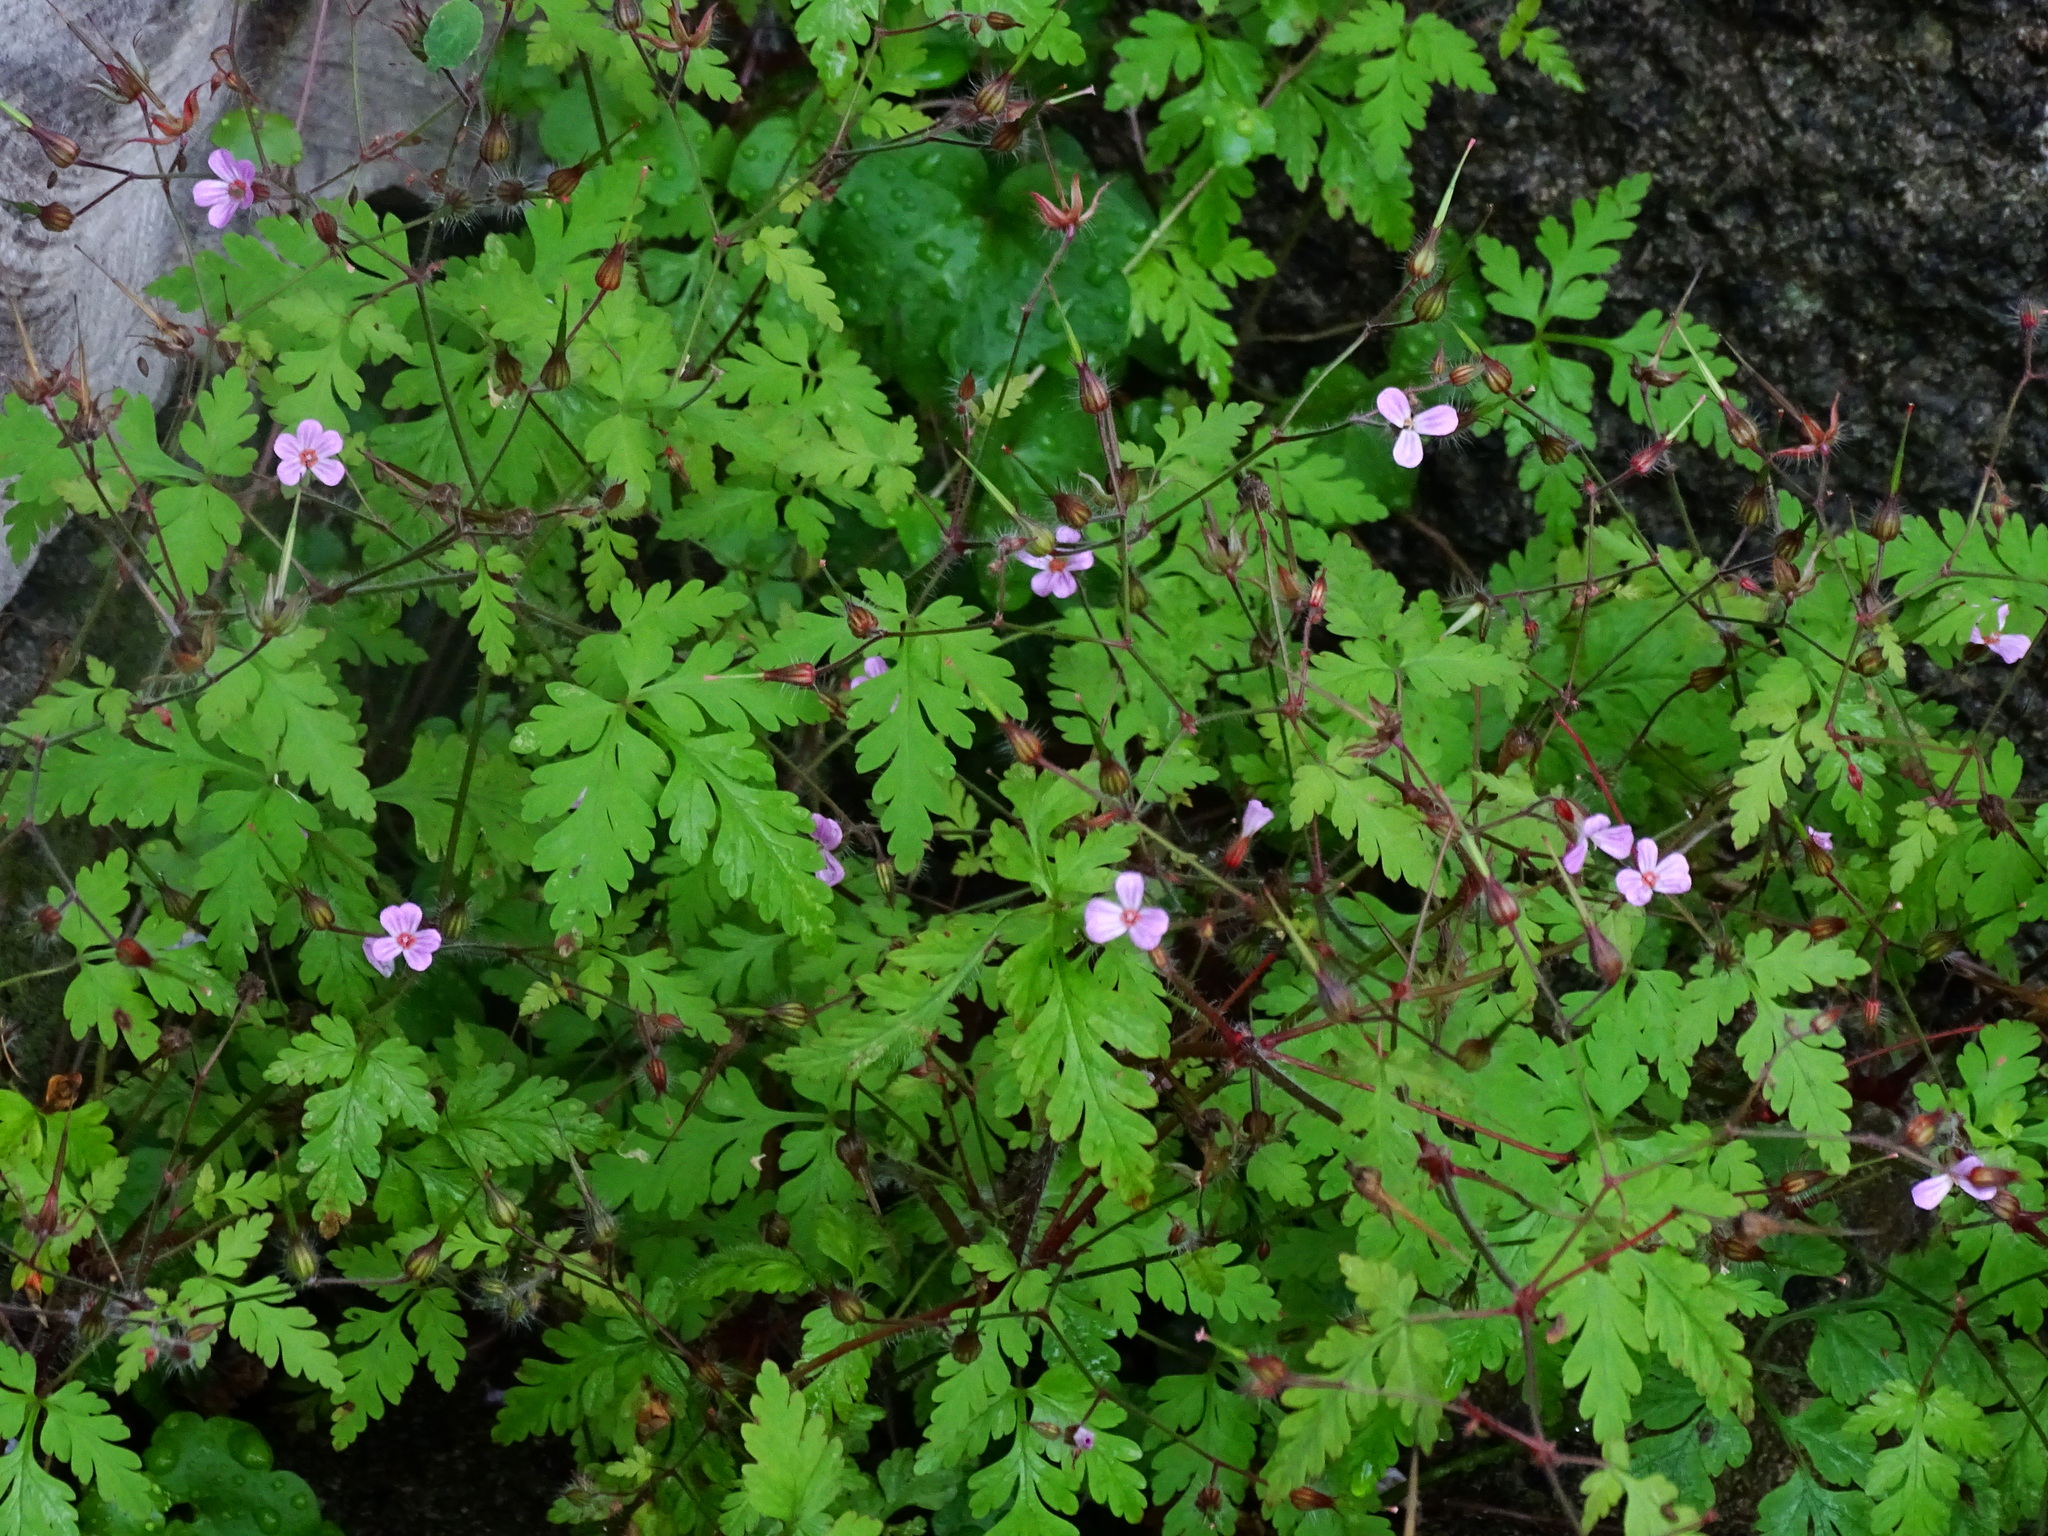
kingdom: Plantae
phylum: Tracheophyta
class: Magnoliopsida
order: Geraniales
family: Geraniaceae
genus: Geranium
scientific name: Geranium robertianum
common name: Herb-robert
